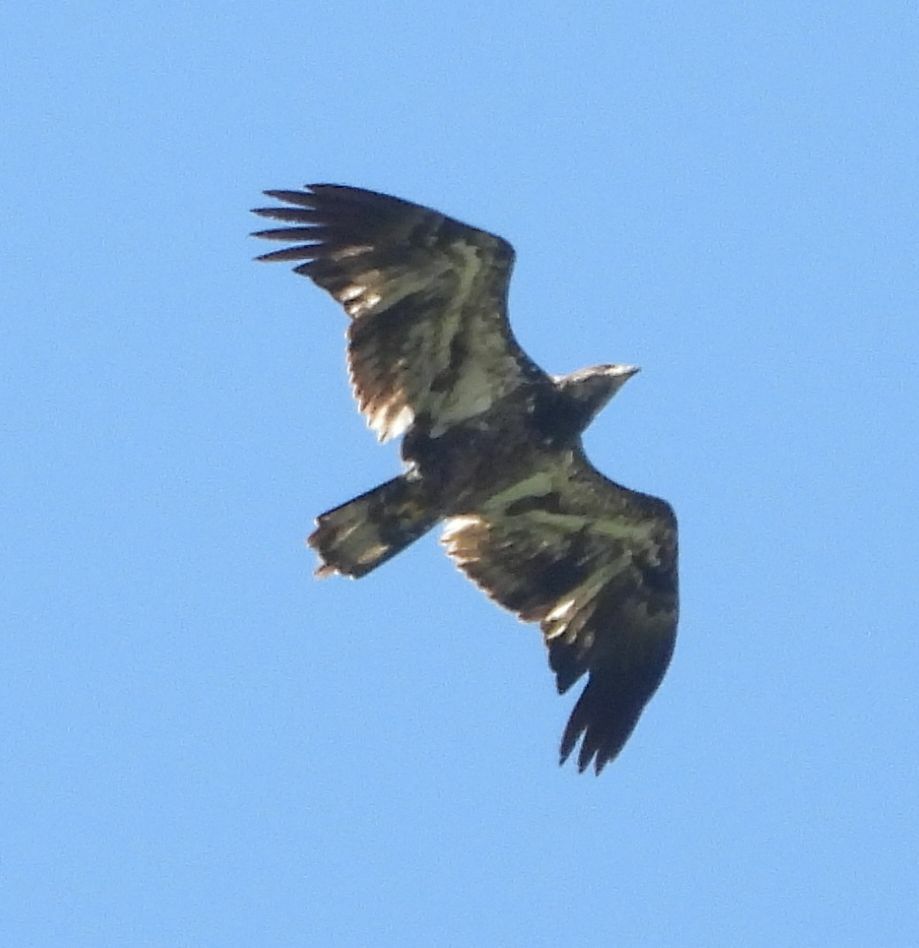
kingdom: Animalia
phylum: Chordata
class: Aves
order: Accipitriformes
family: Accipitridae
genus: Haliaeetus
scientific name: Haliaeetus leucocephalus
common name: Bald eagle
